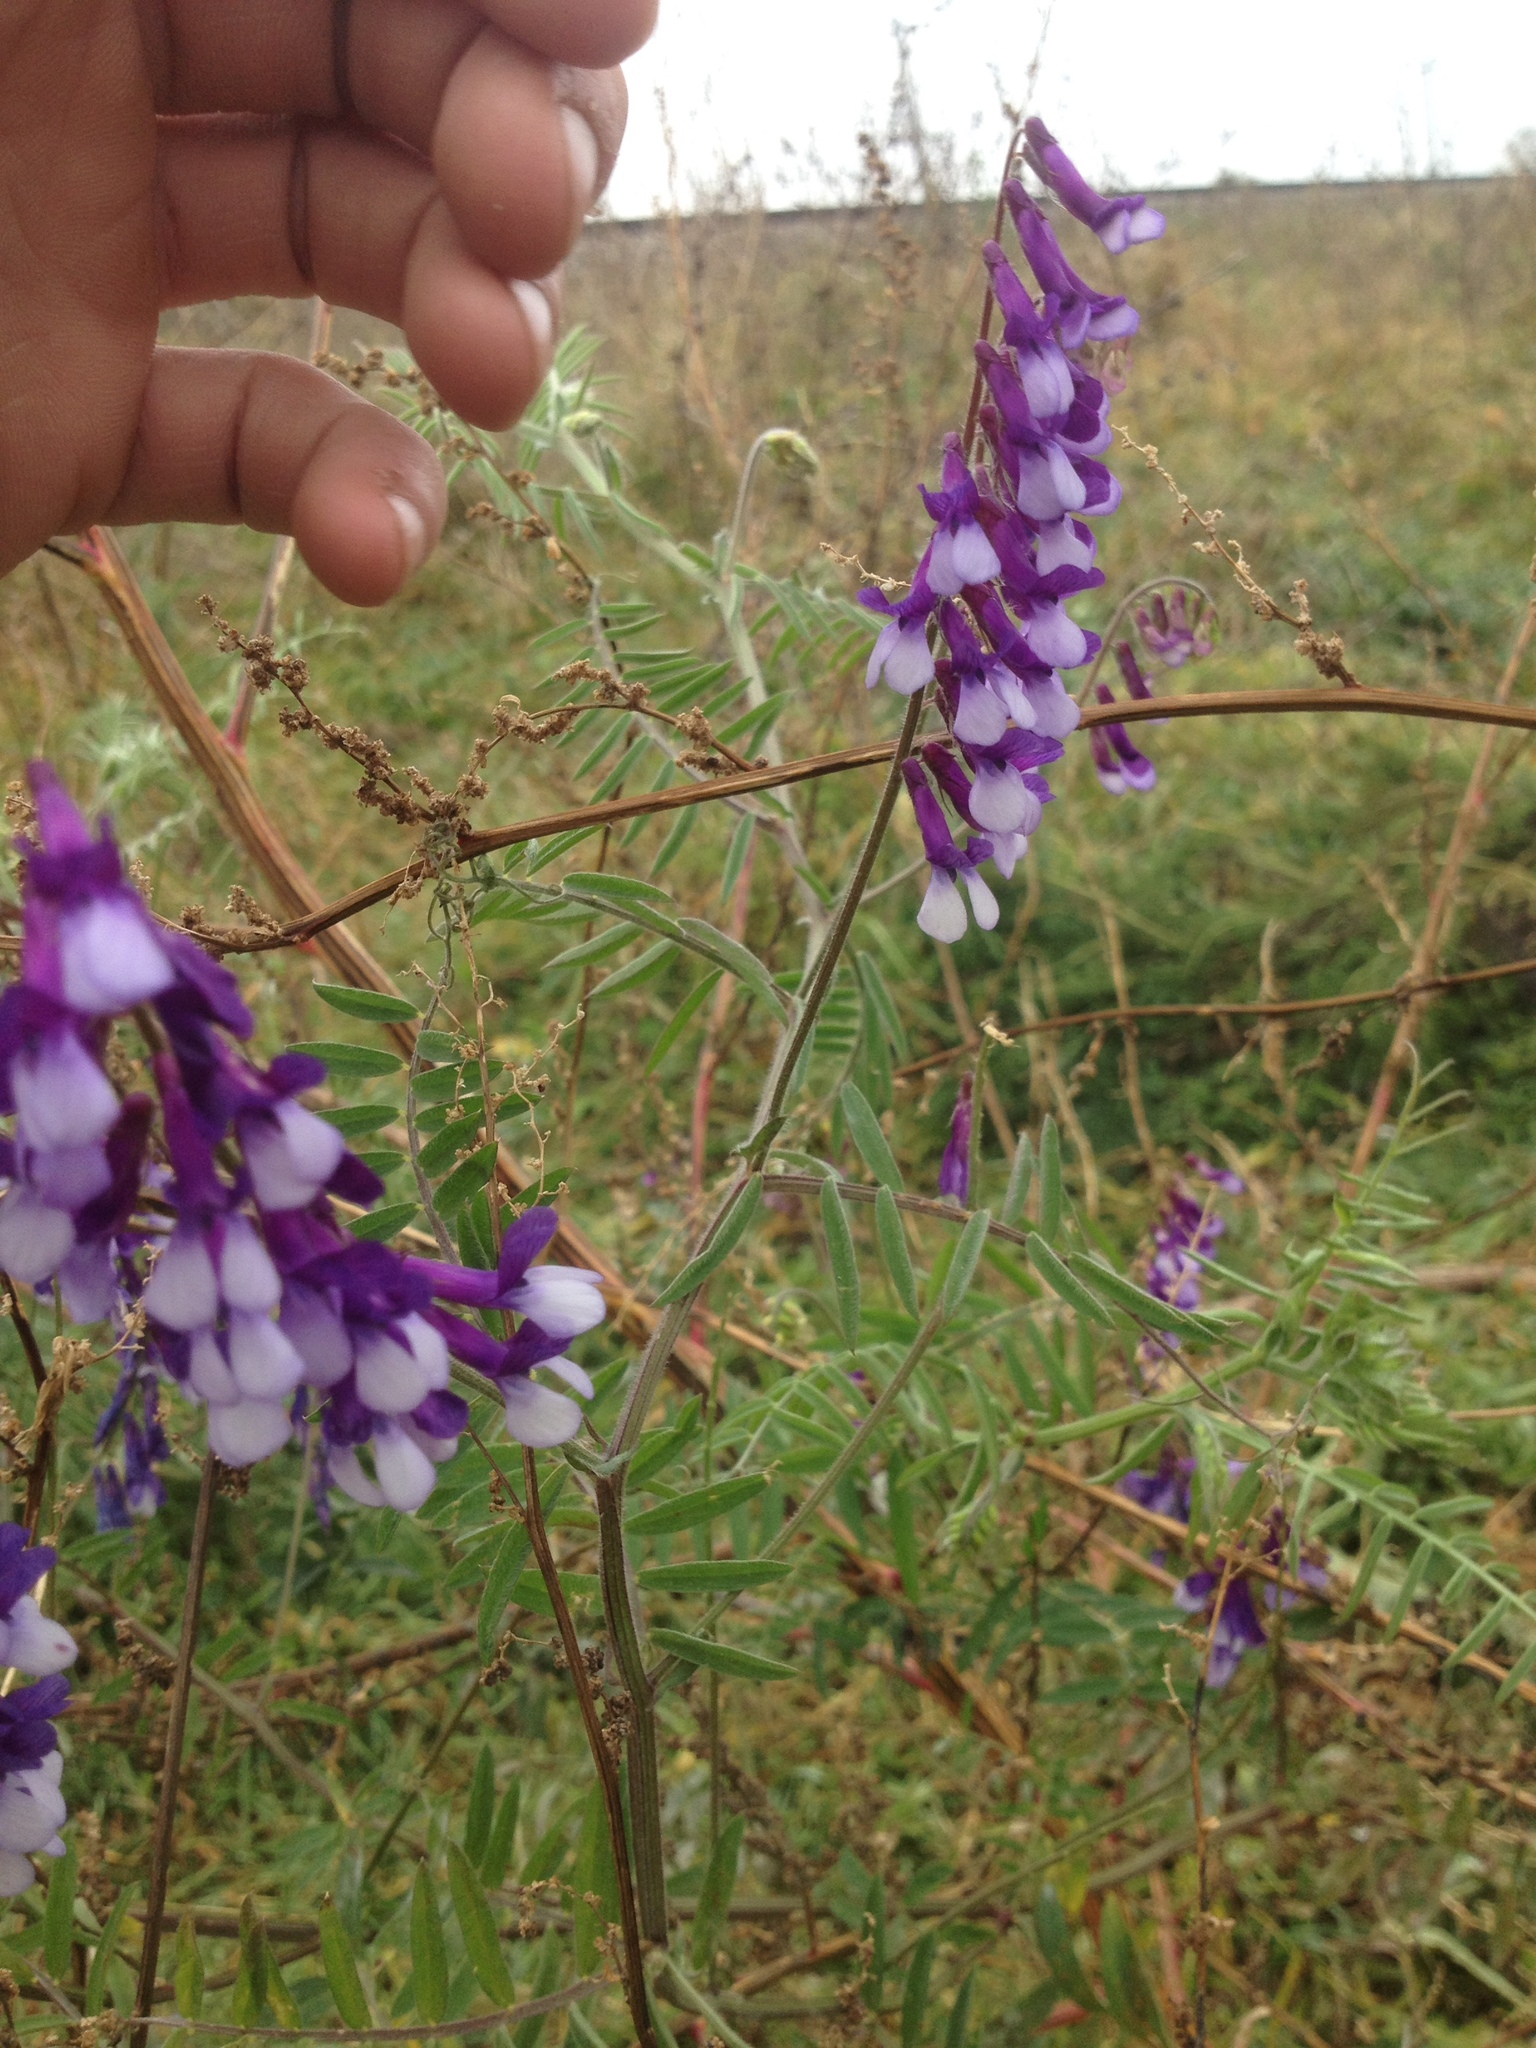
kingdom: Plantae
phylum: Tracheophyta
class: Magnoliopsida
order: Fabales
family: Fabaceae
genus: Vicia
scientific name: Vicia villosa
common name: Fodder vetch
